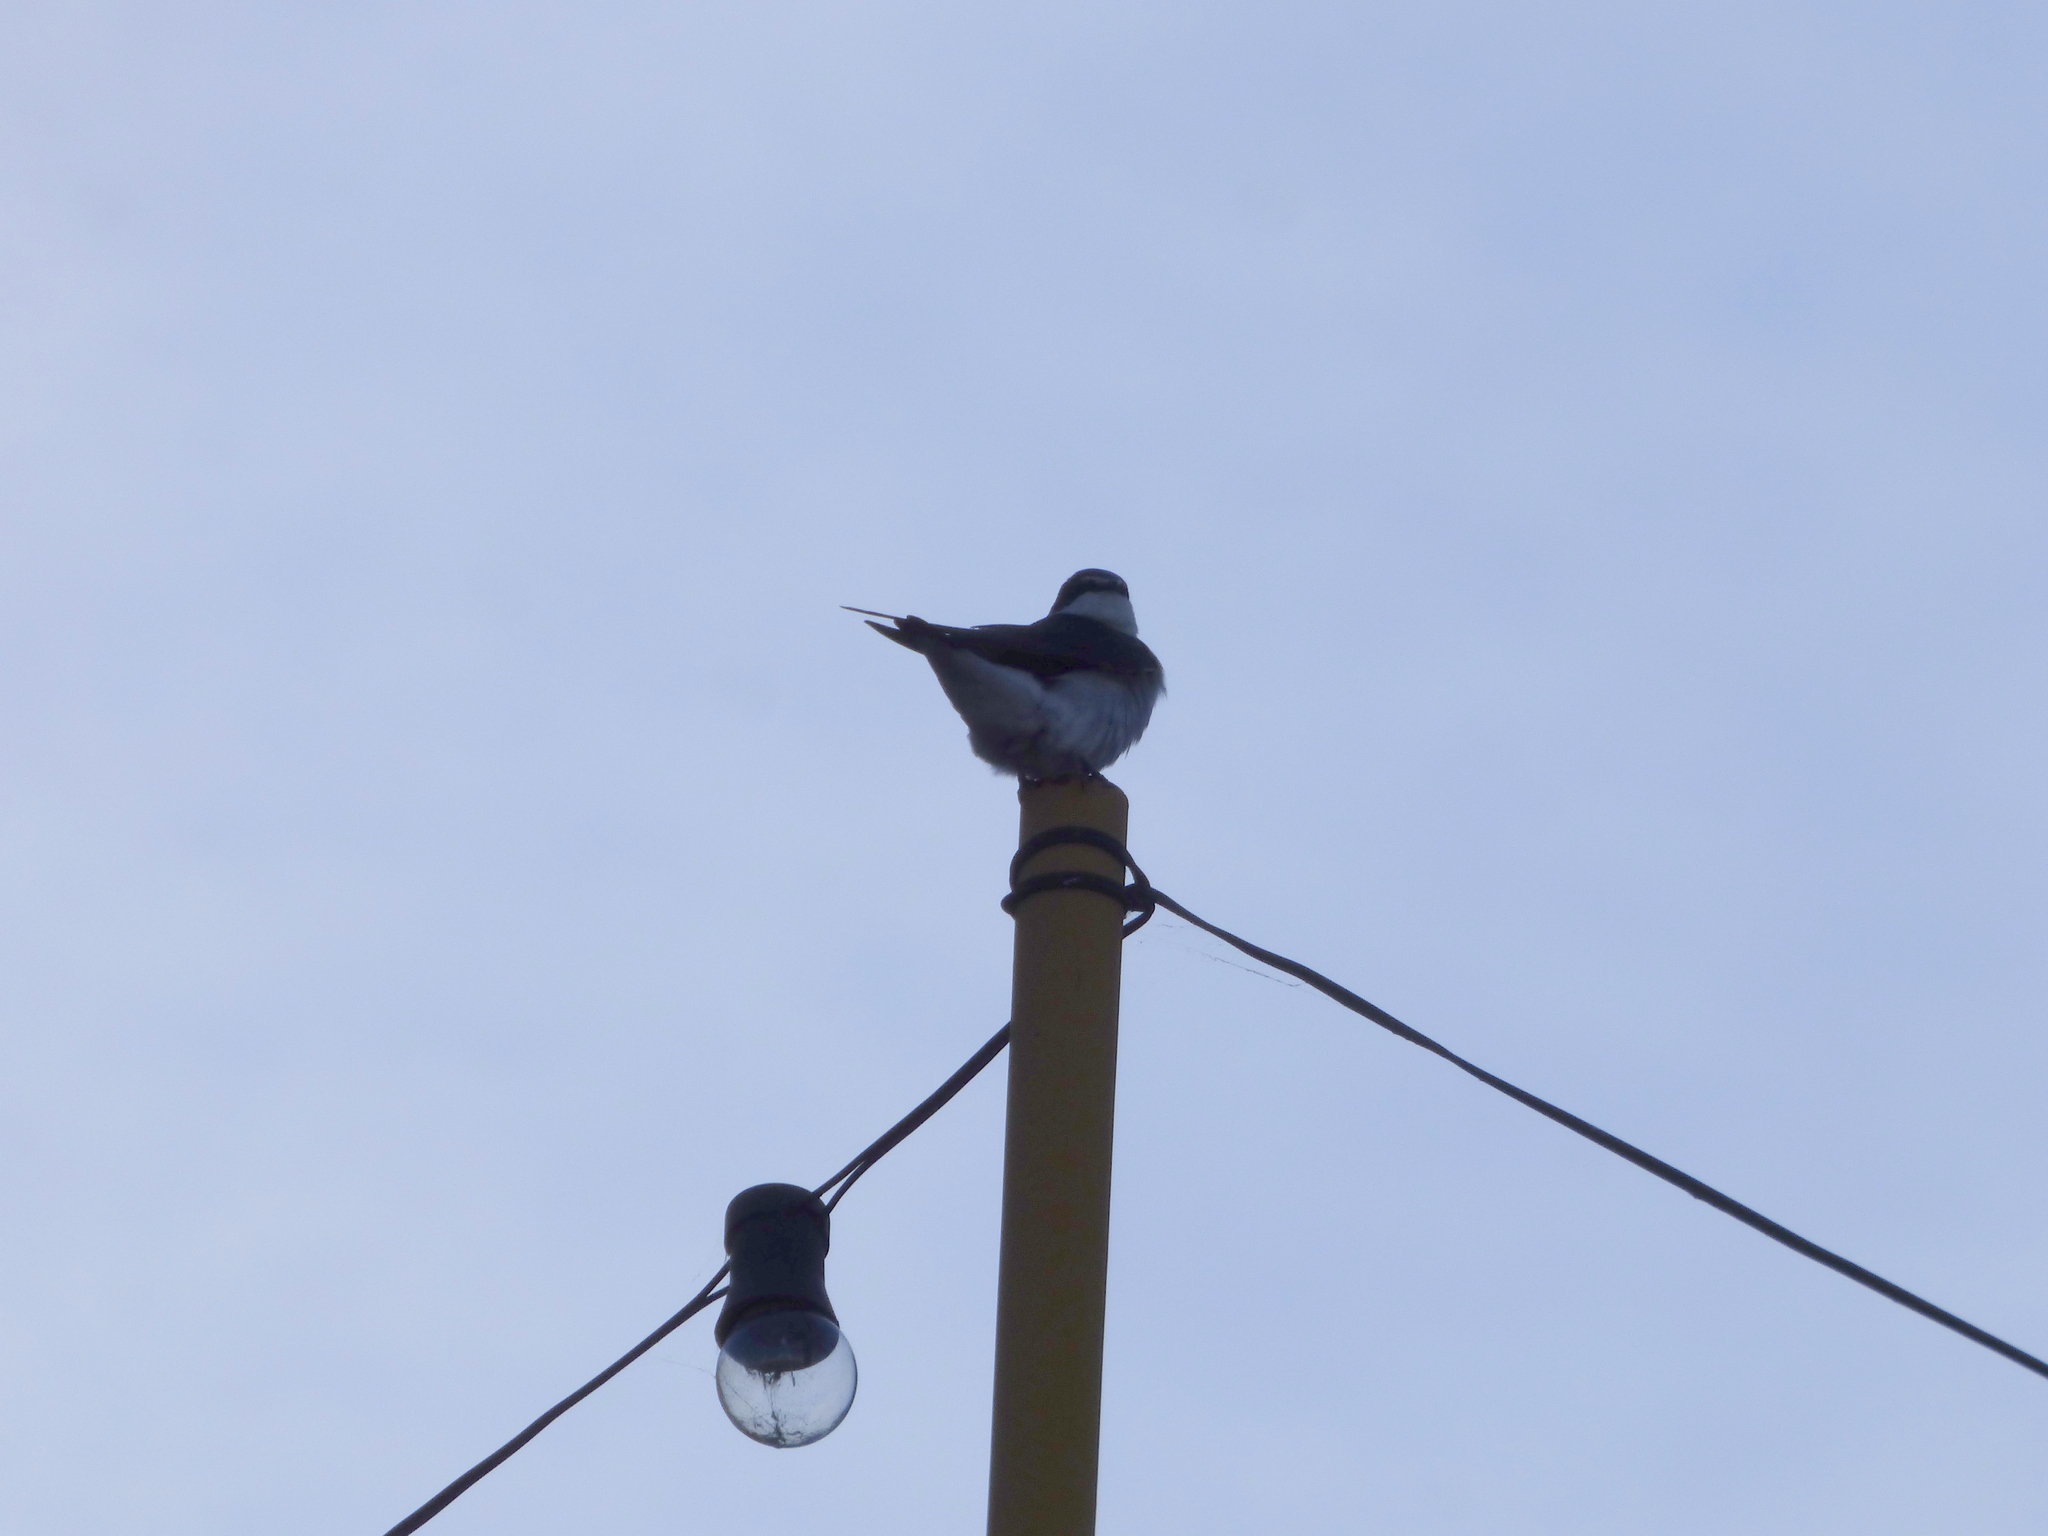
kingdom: Animalia
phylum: Chordata
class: Aves
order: Passeriformes
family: Hirundinidae
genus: Tachycineta
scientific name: Tachycineta leucorrhoa
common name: White-rumped swallow
